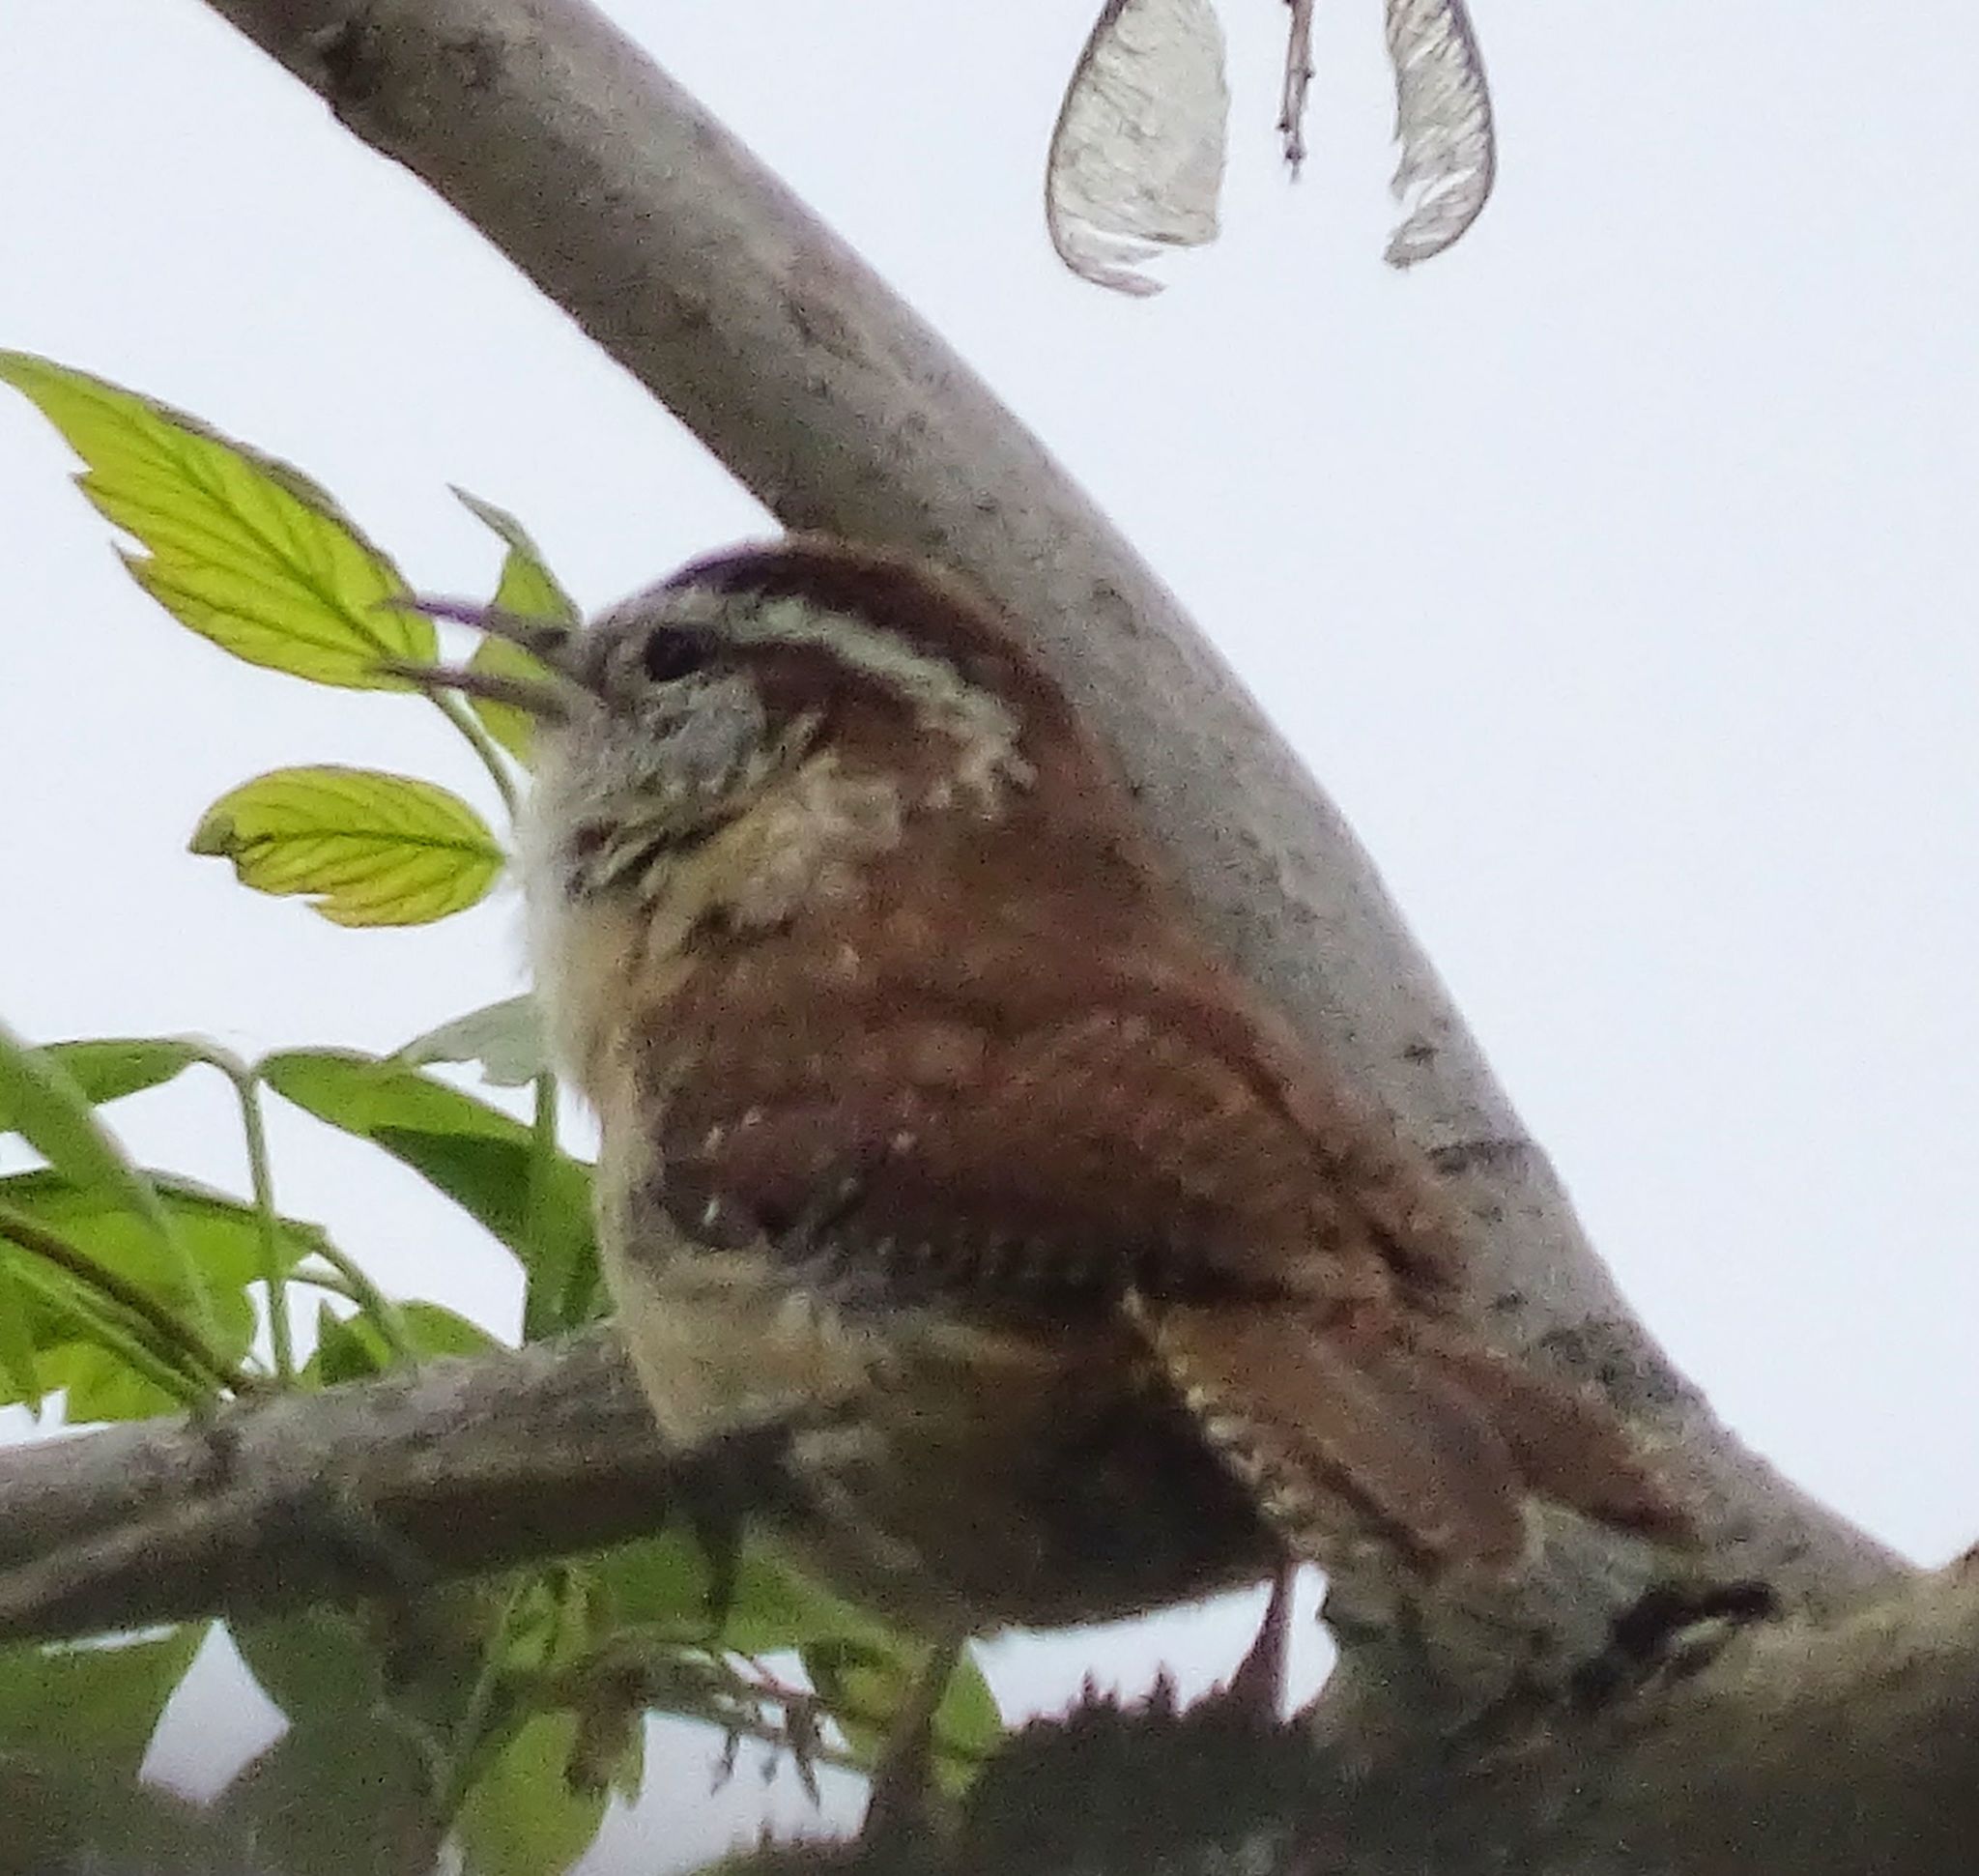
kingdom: Animalia
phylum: Chordata
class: Aves
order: Passeriformes
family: Troglodytidae
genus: Thryothorus
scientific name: Thryothorus ludovicianus
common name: Carolina wren
